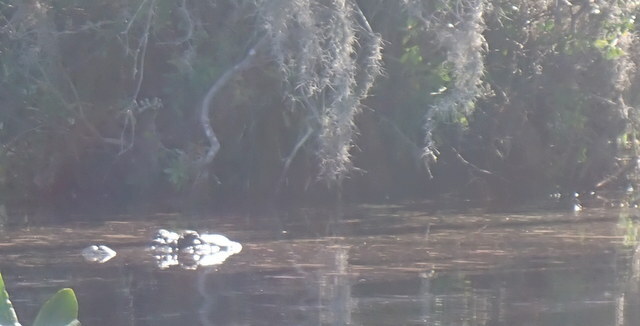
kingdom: Animalia
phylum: Chordata
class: Crocodylia
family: Alligatoridae
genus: Alligator
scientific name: Alligator mississippiensis
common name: American alligator
